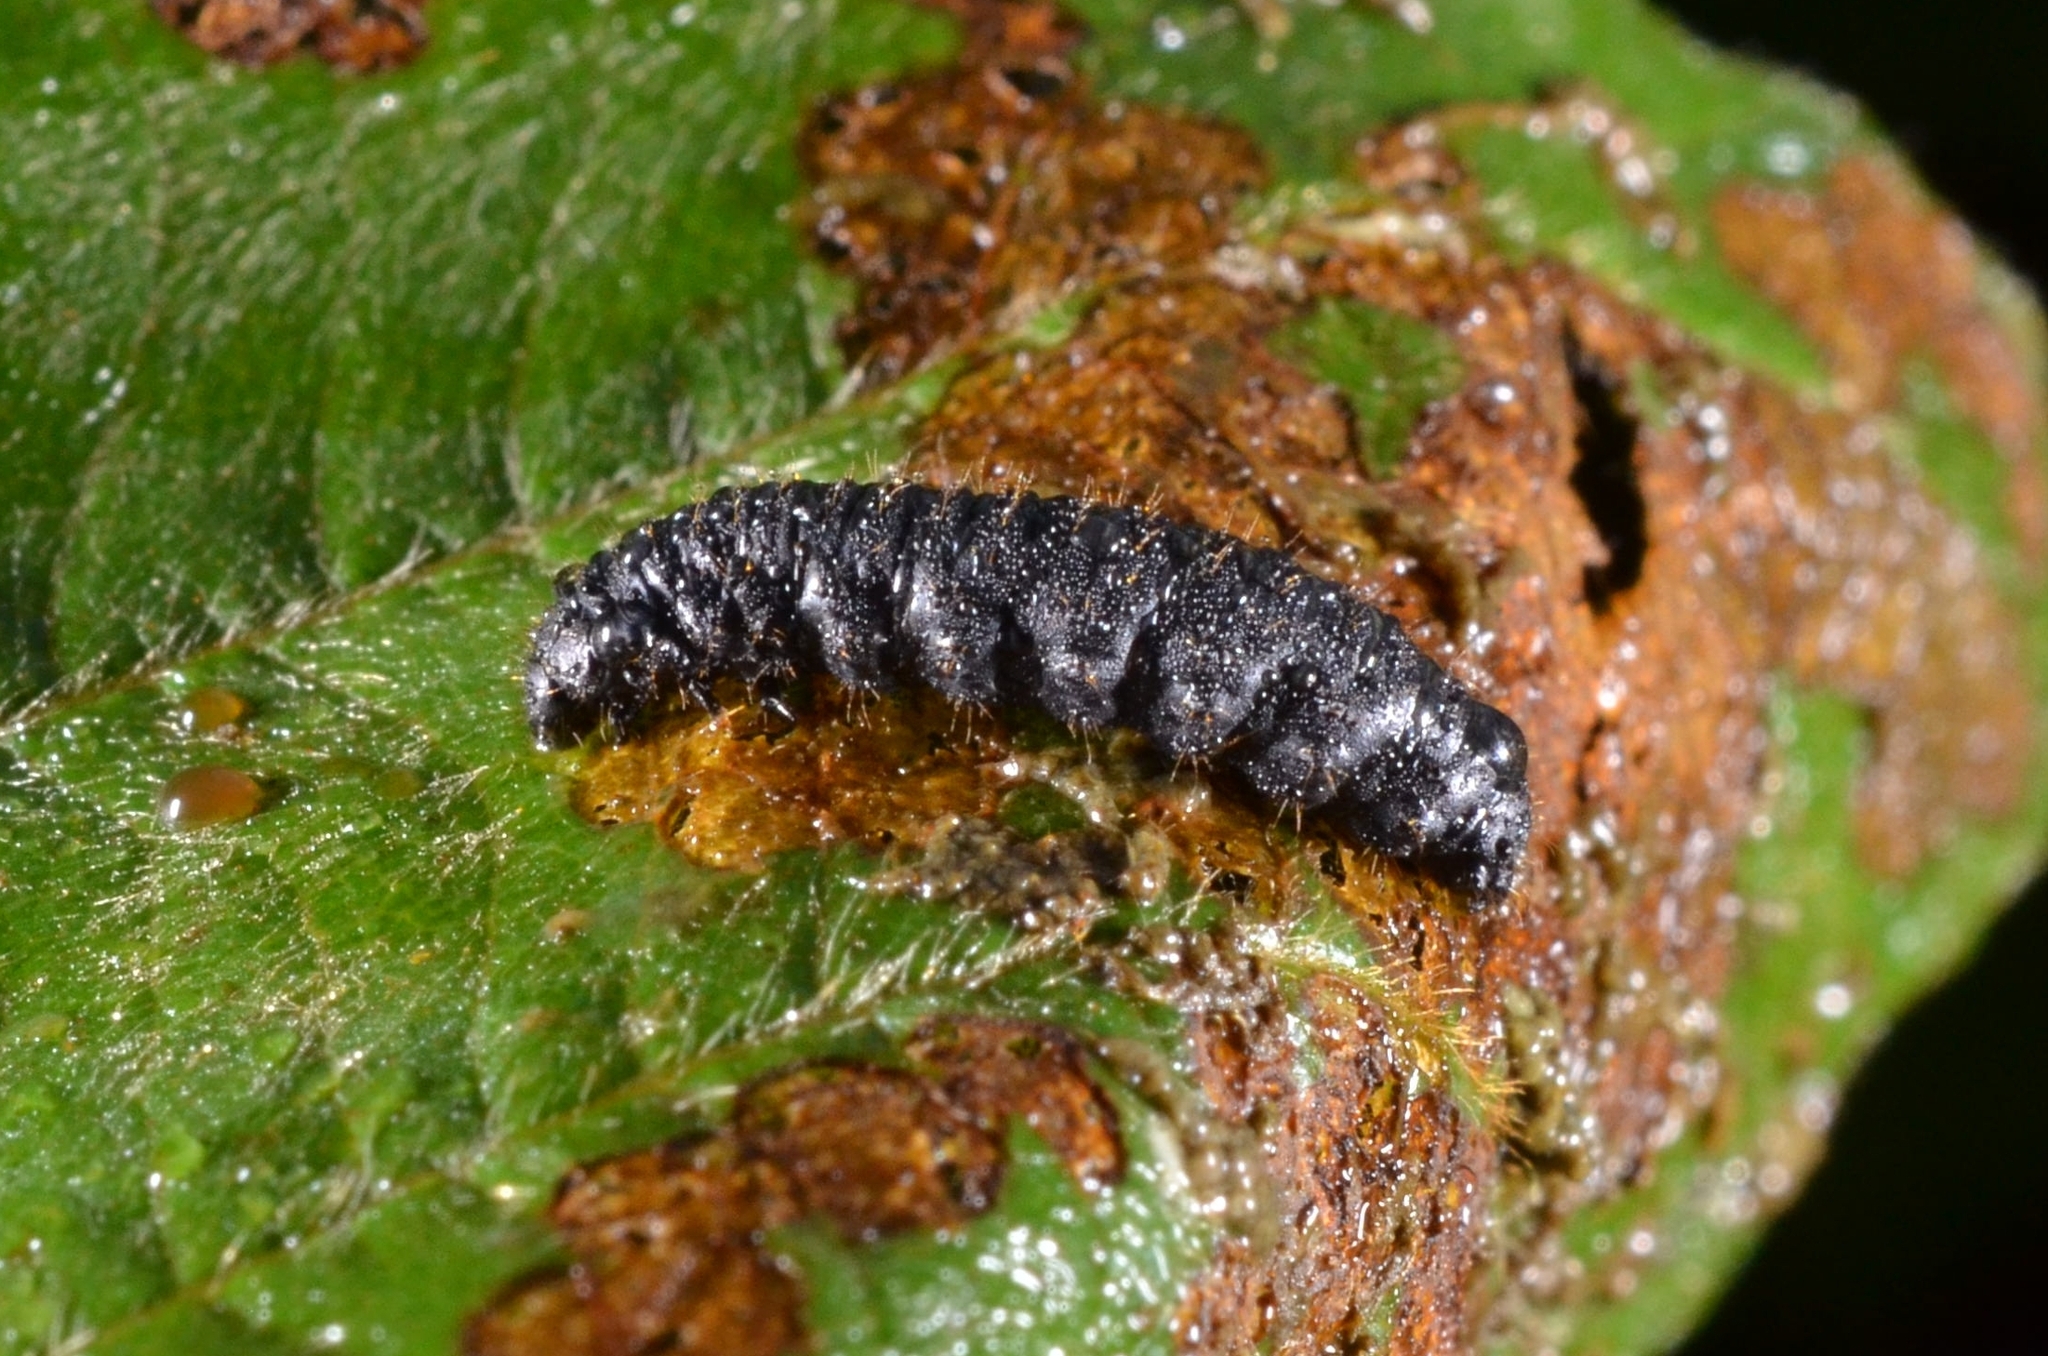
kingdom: Animalia
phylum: Arthropoda
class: Insecta
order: Coleoptera
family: Chrysomelidae
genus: Agelastica
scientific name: Agelastica alni
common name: Alder leaf beetle
